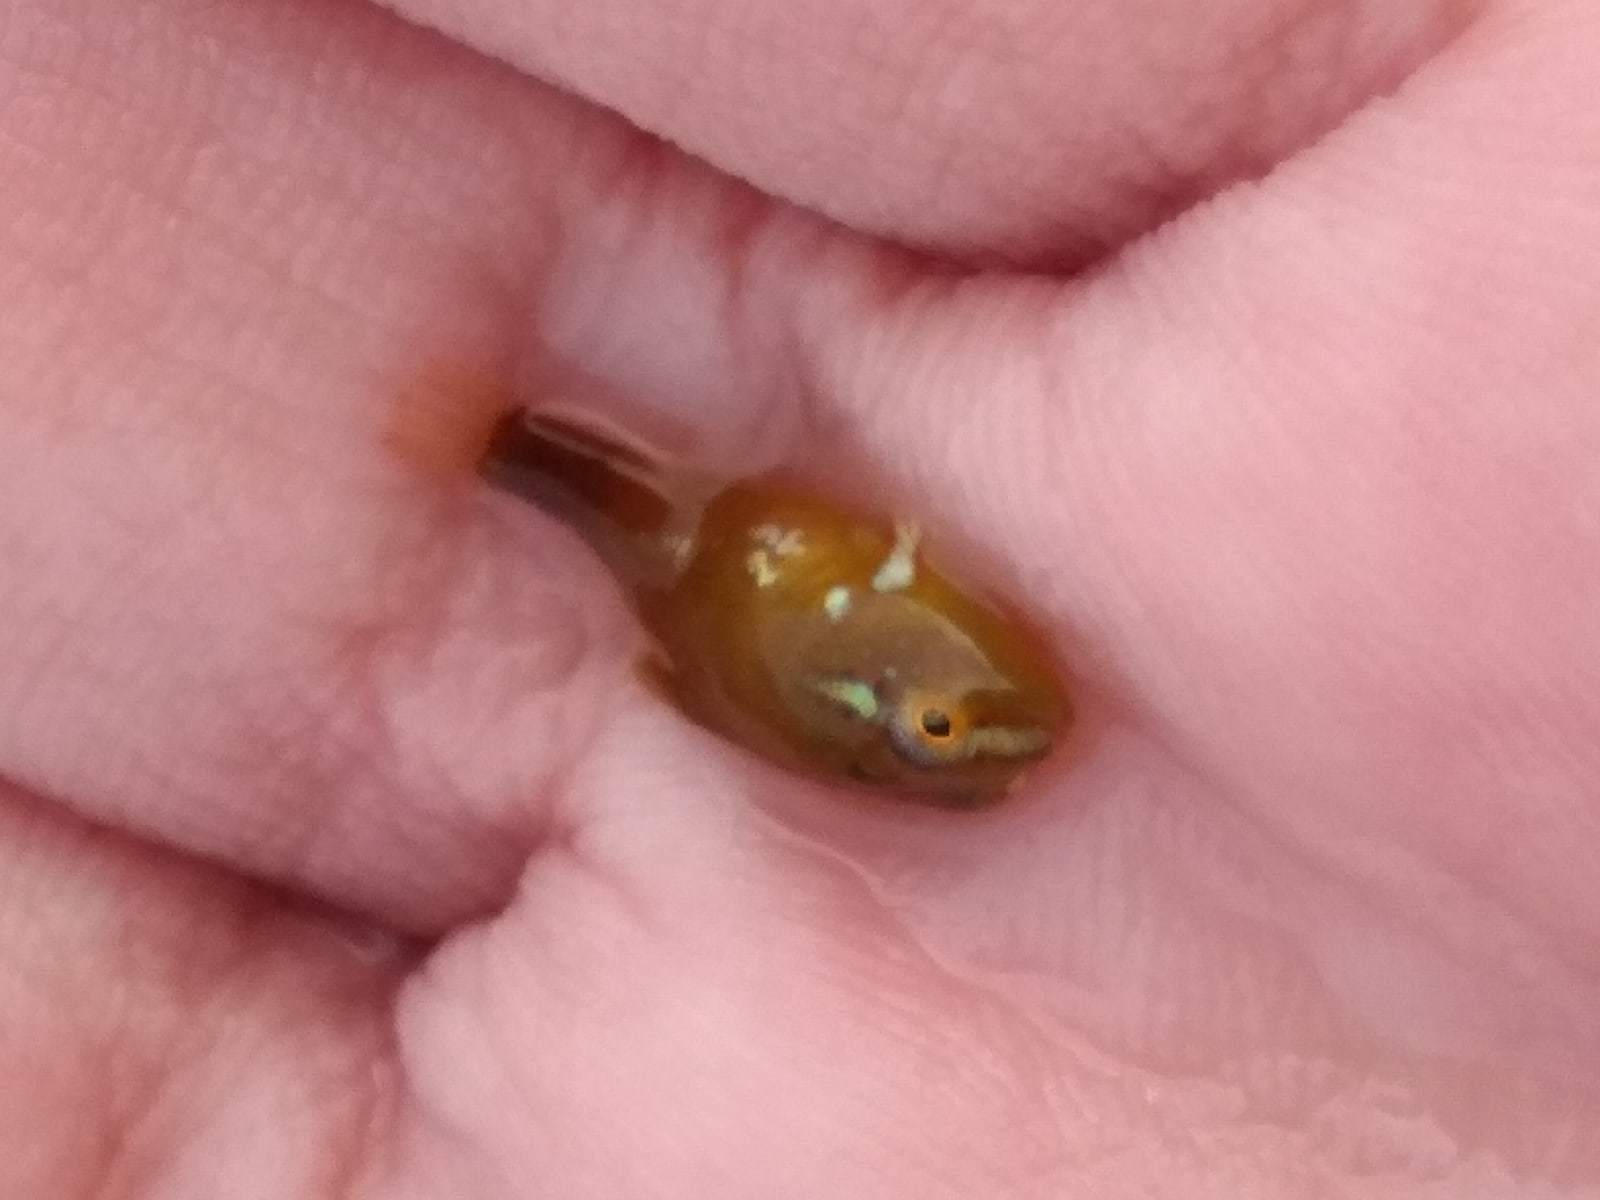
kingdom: Animalia
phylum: Chordata
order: Scorpaeniformes
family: Cyclopteridae
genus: Cyclopterus
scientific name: Cyclopterus lumpus
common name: Lumpsucker
